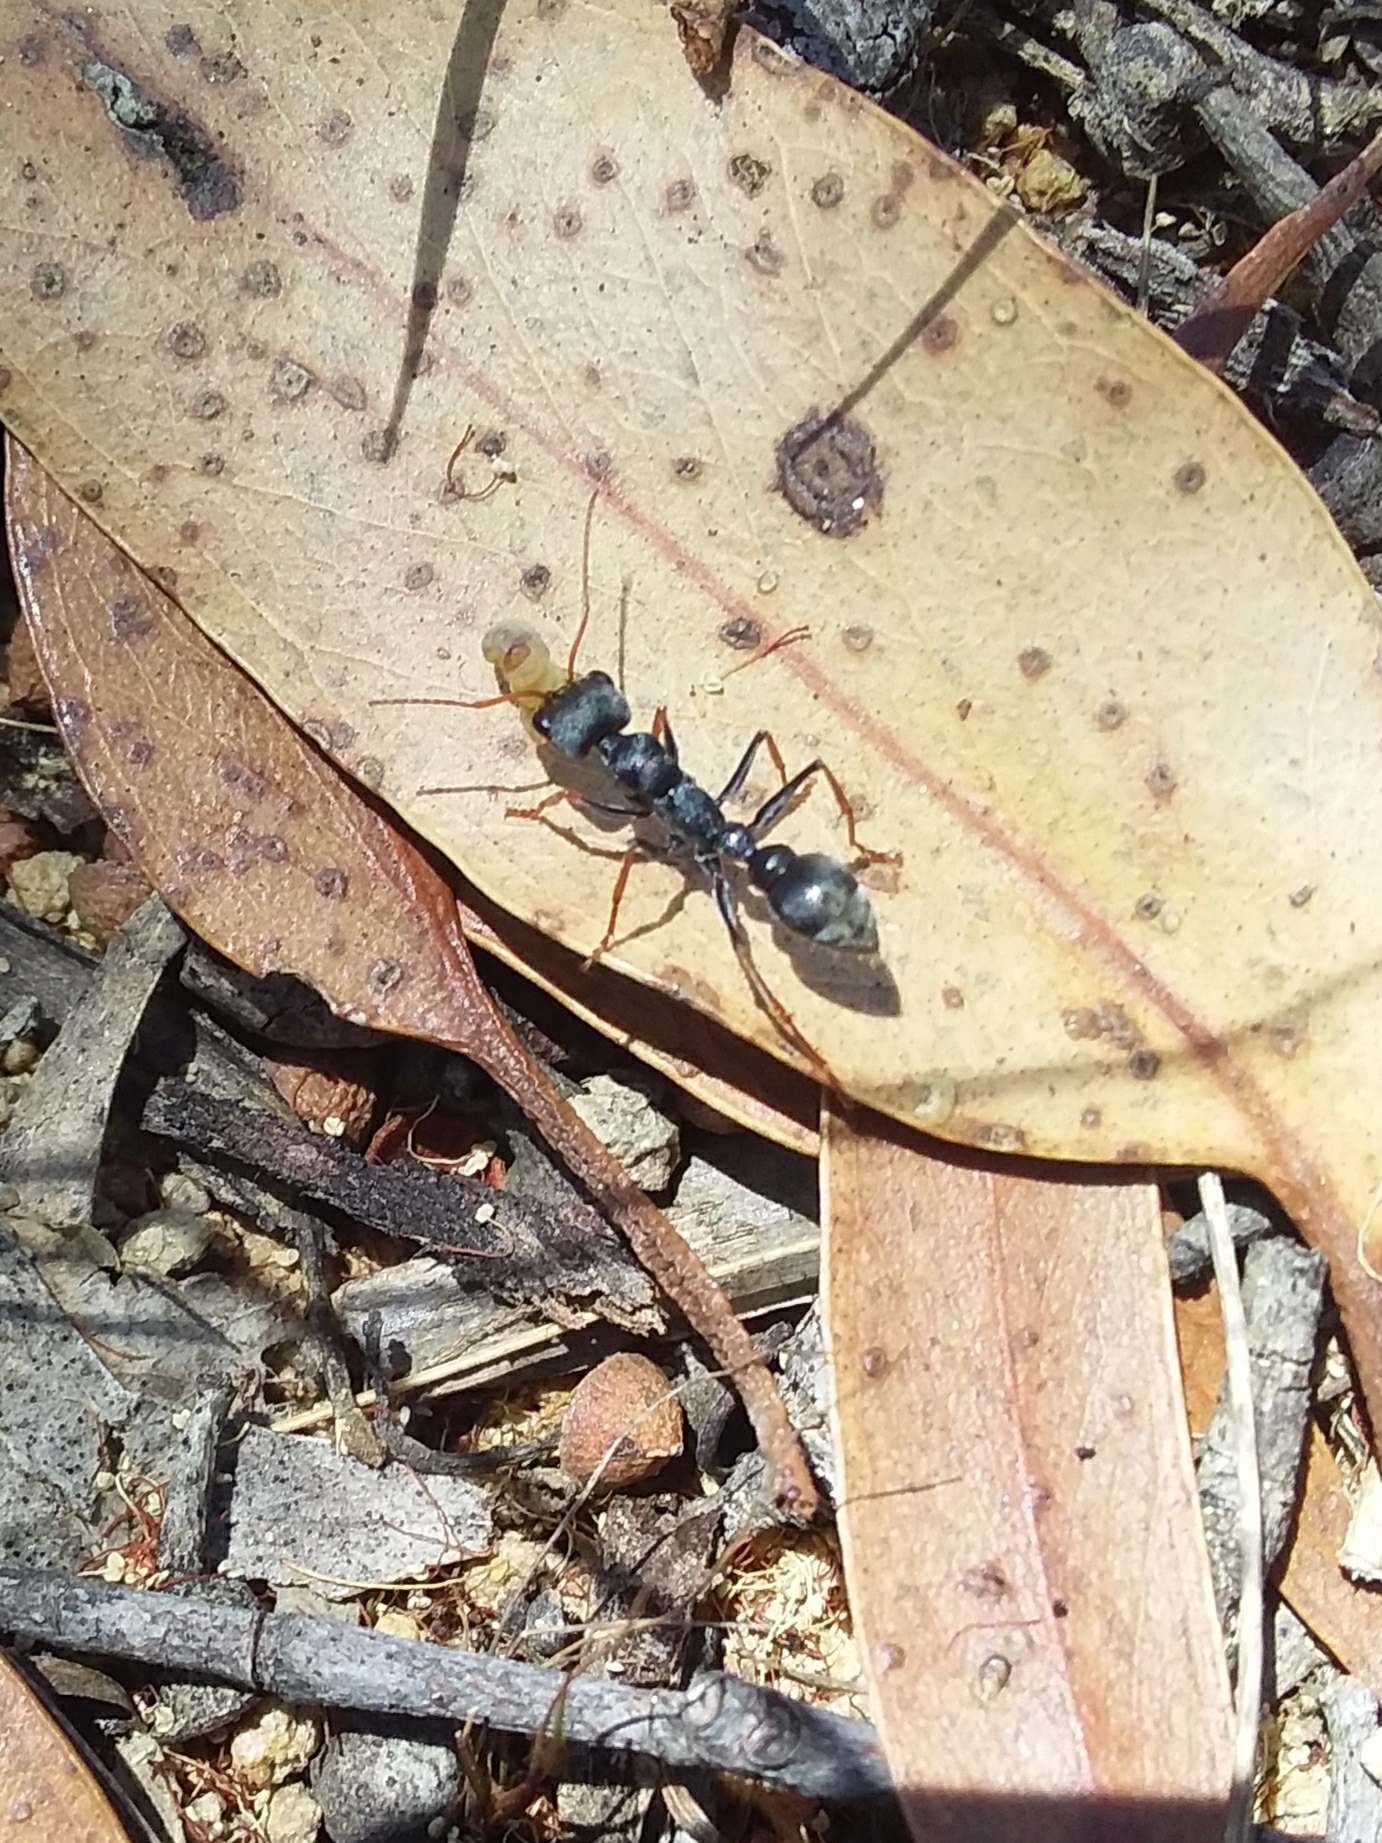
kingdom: Animalia
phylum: Arthropoda
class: Insecta
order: Hymenoptera
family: Formicidae
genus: Myrmecia
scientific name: Myrmecia pilosula
